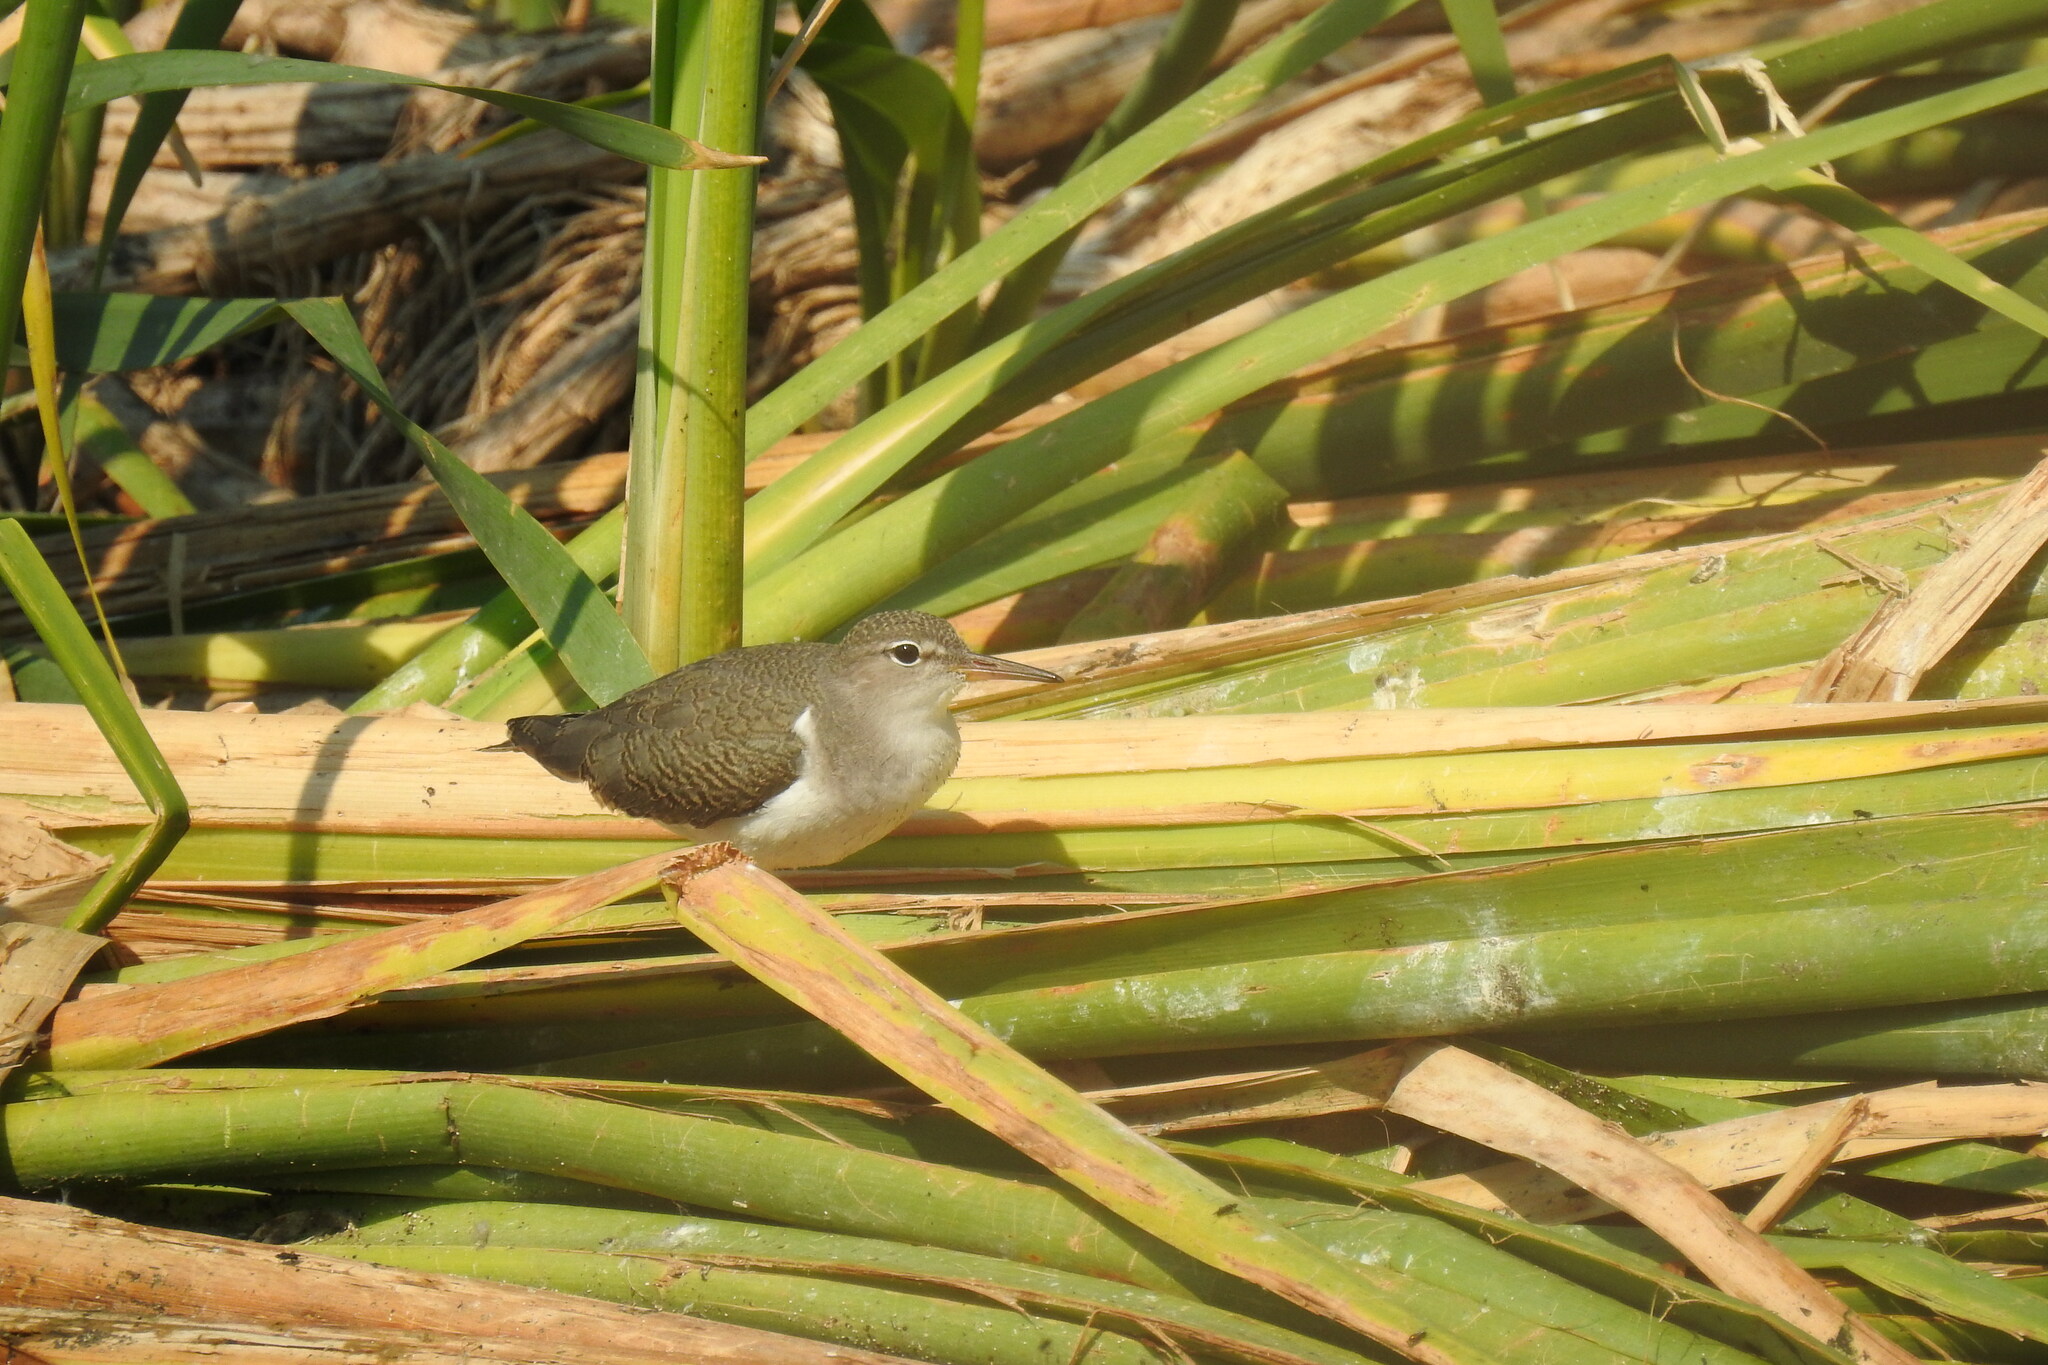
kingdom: Animalia
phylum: Chordata
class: Aves
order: Charadriiformes
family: Scolopacidae
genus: Actitis
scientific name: Actitis macularius
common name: Spotted sandpiper
